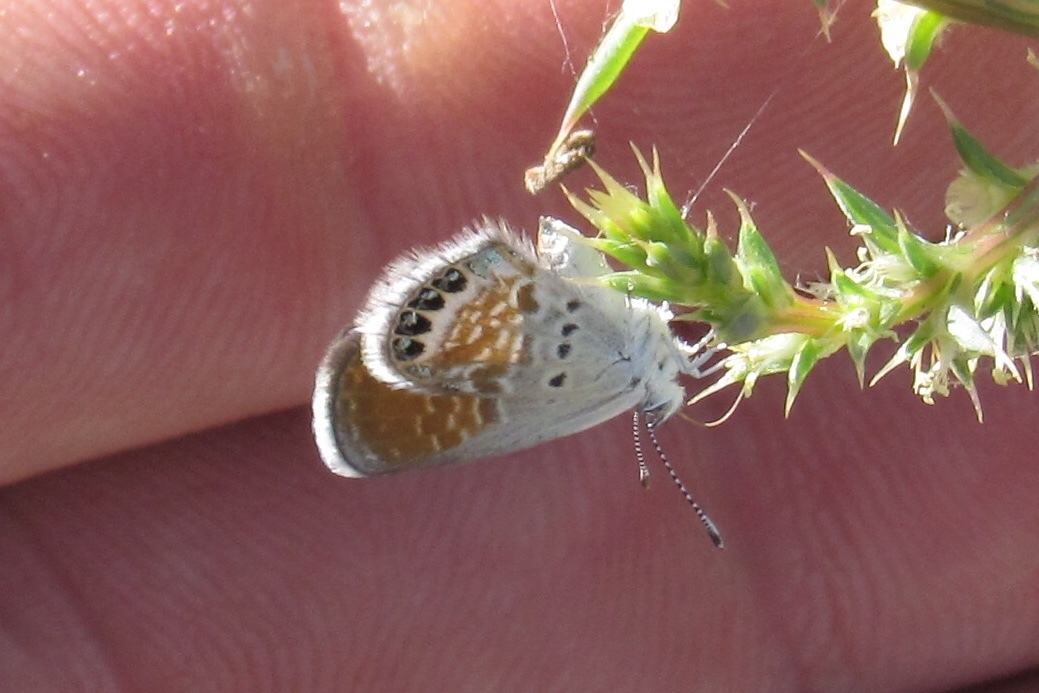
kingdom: Animalia
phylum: Arthropoda
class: Insecta
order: Lepidoptera
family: Lycaenidae
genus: Brephidium
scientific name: Brephidium exilis
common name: Pygmy blue
